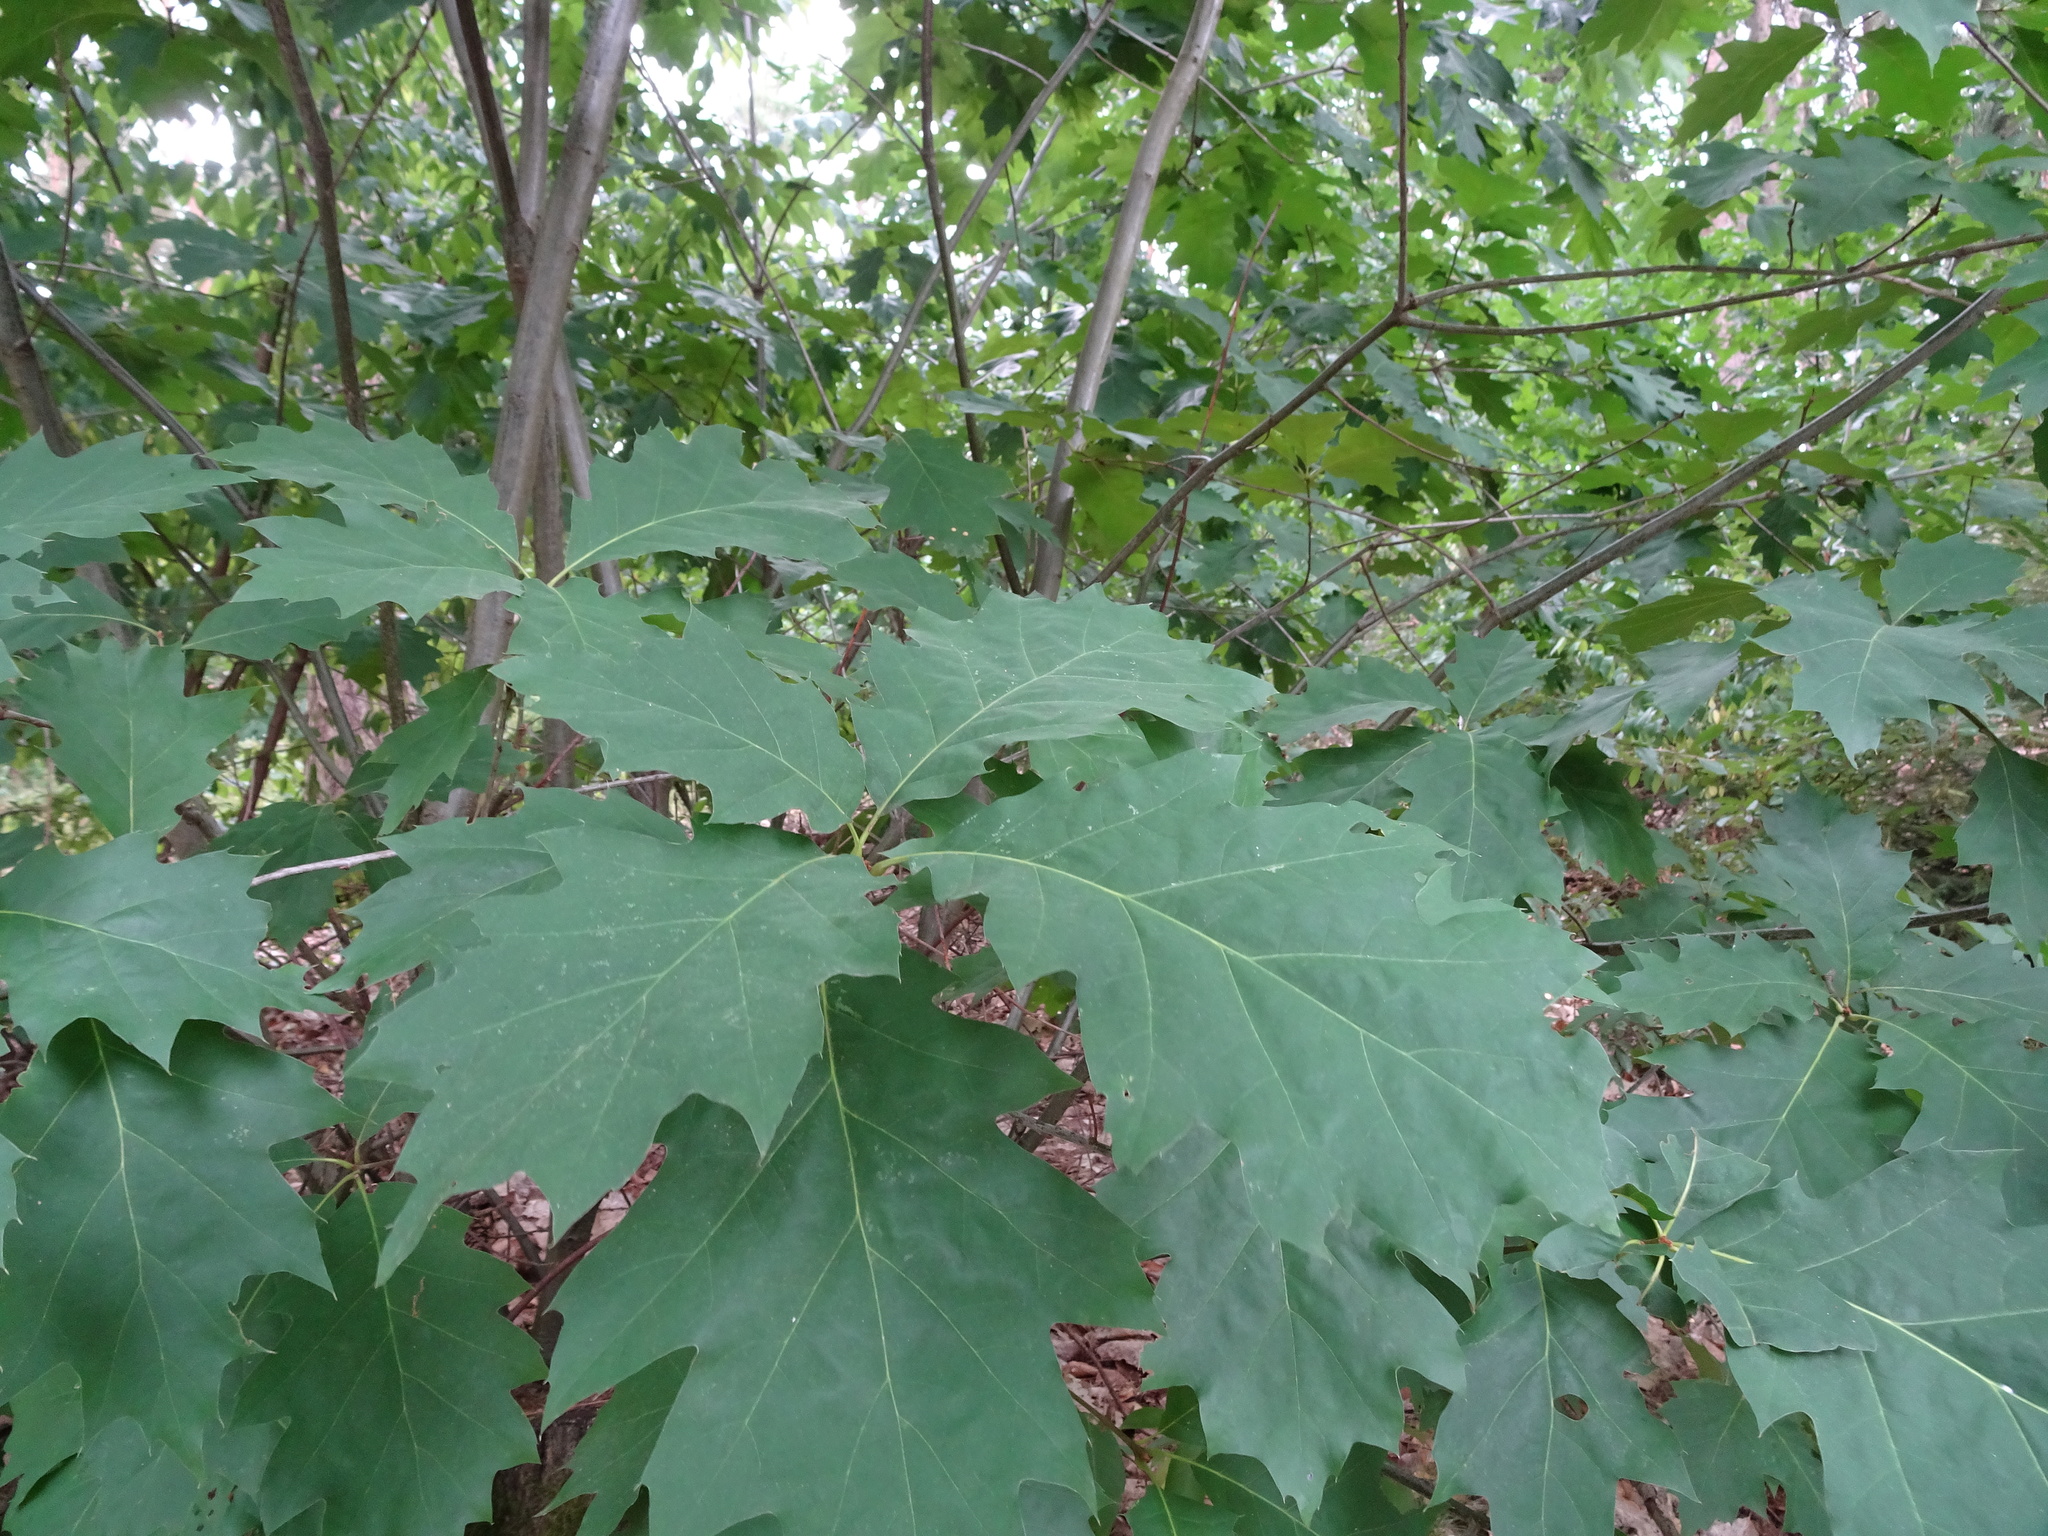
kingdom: Plantae
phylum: Tracheophyta
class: Magnoliopsida
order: Fagales
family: Fagaceae
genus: Quercus
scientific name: Quercus rubra
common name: Red oak
